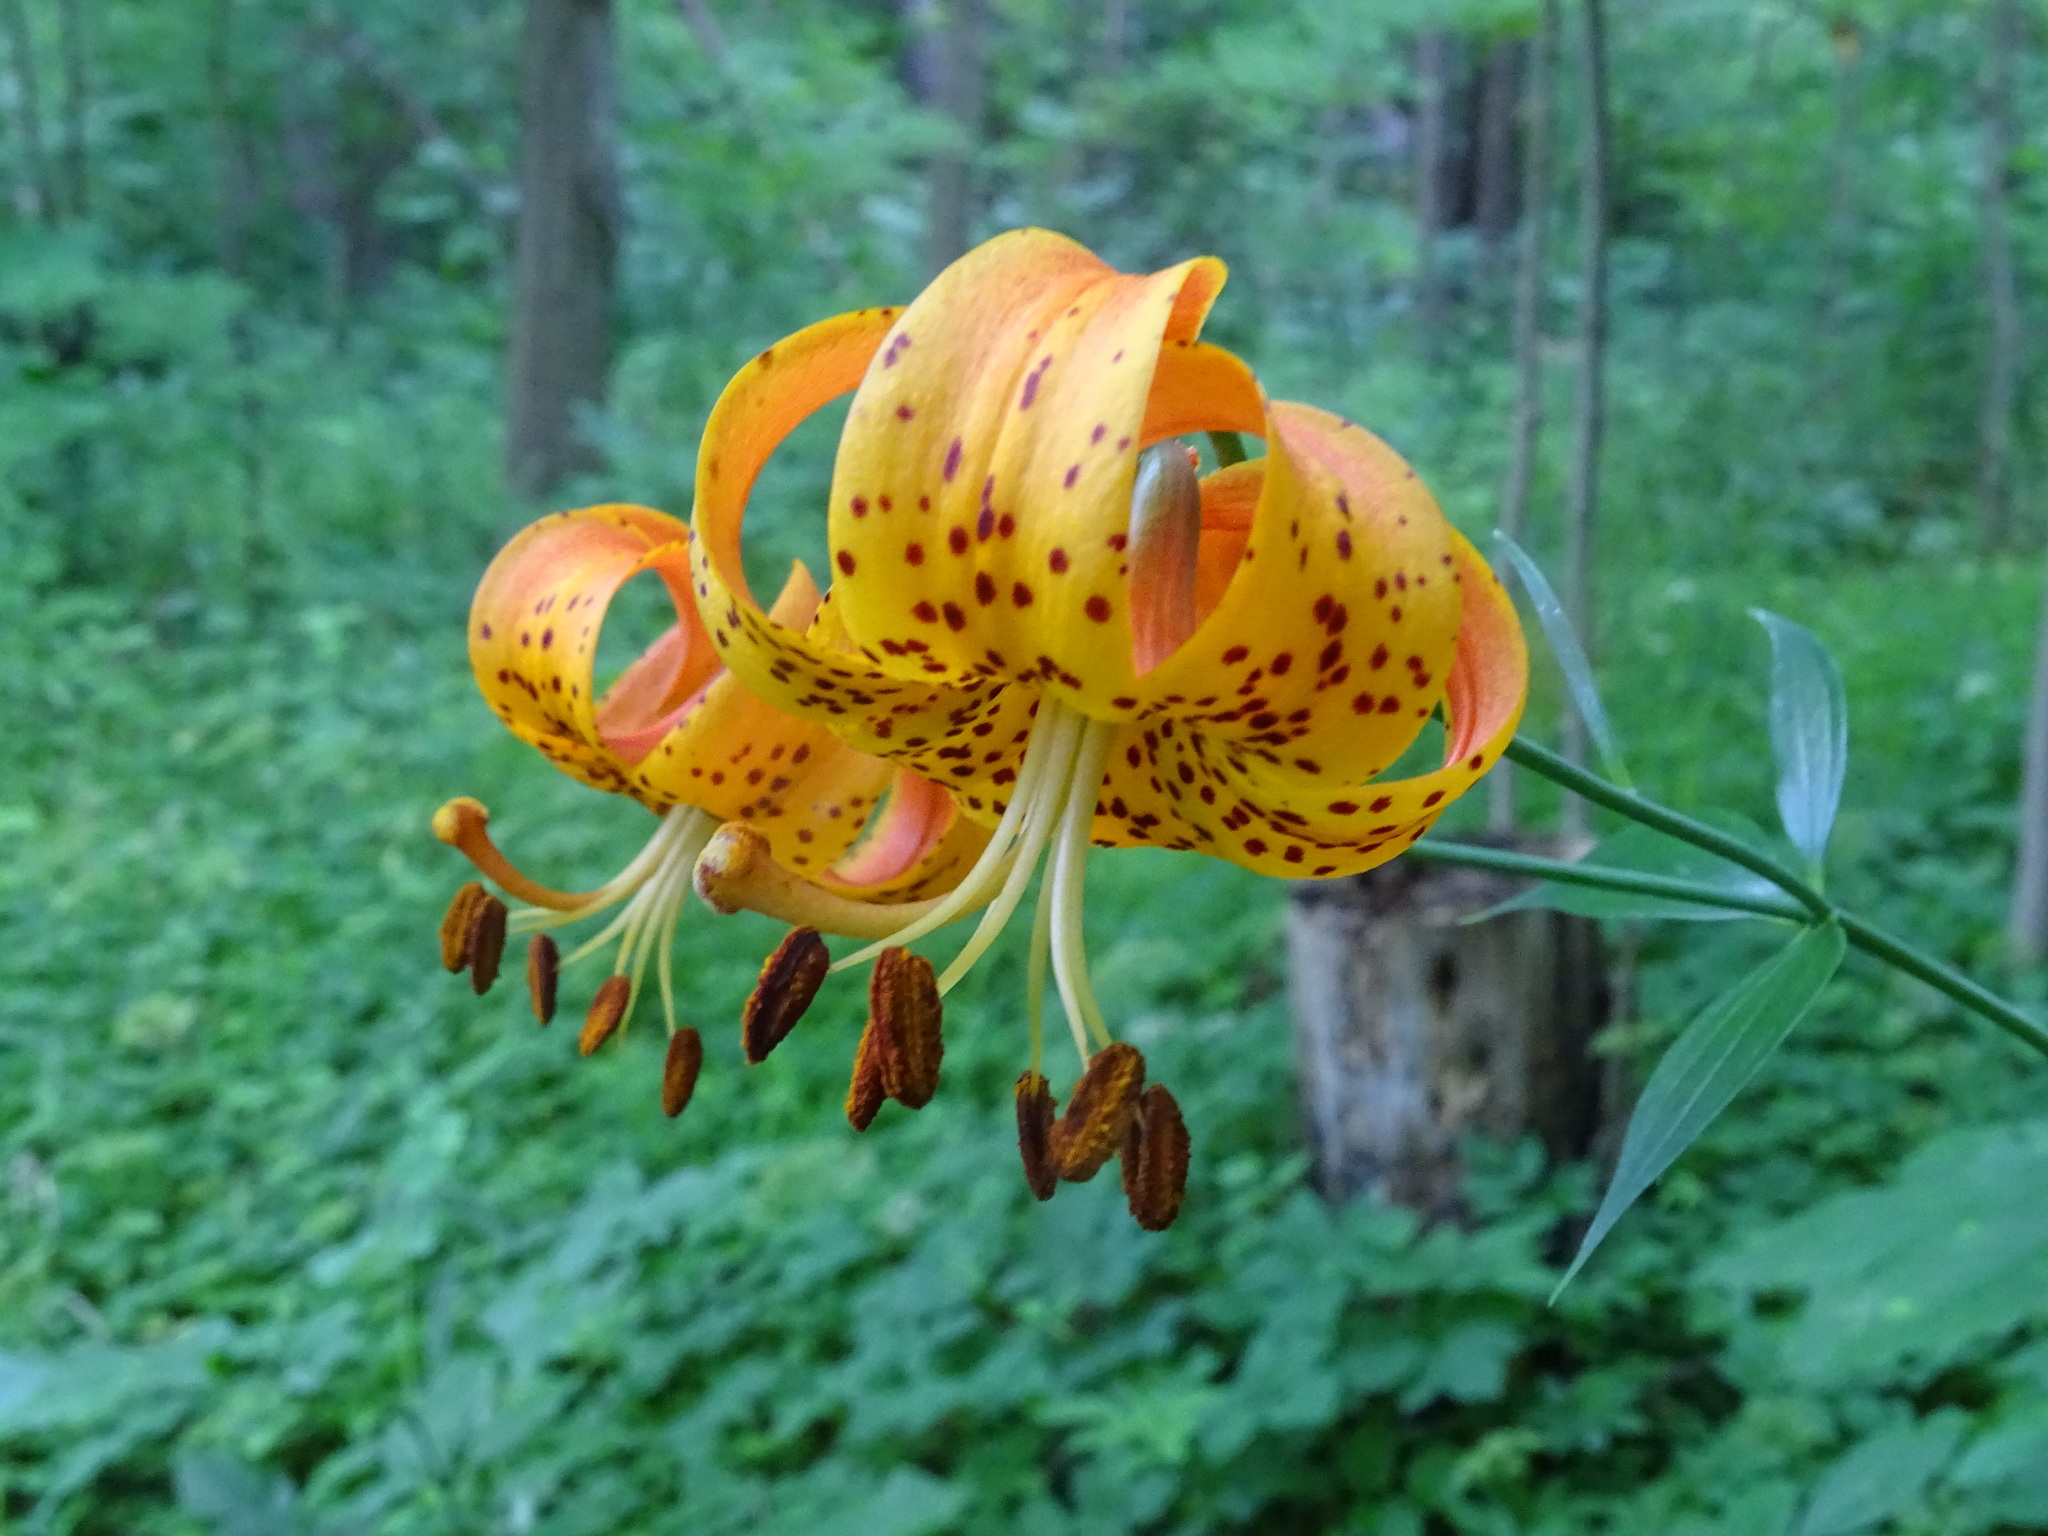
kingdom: Plantae
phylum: Tracheophyta
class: Liliopsida
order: Liliales
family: Liliaceae
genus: Lilium
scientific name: Lilium michiganense
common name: Michigan lily
